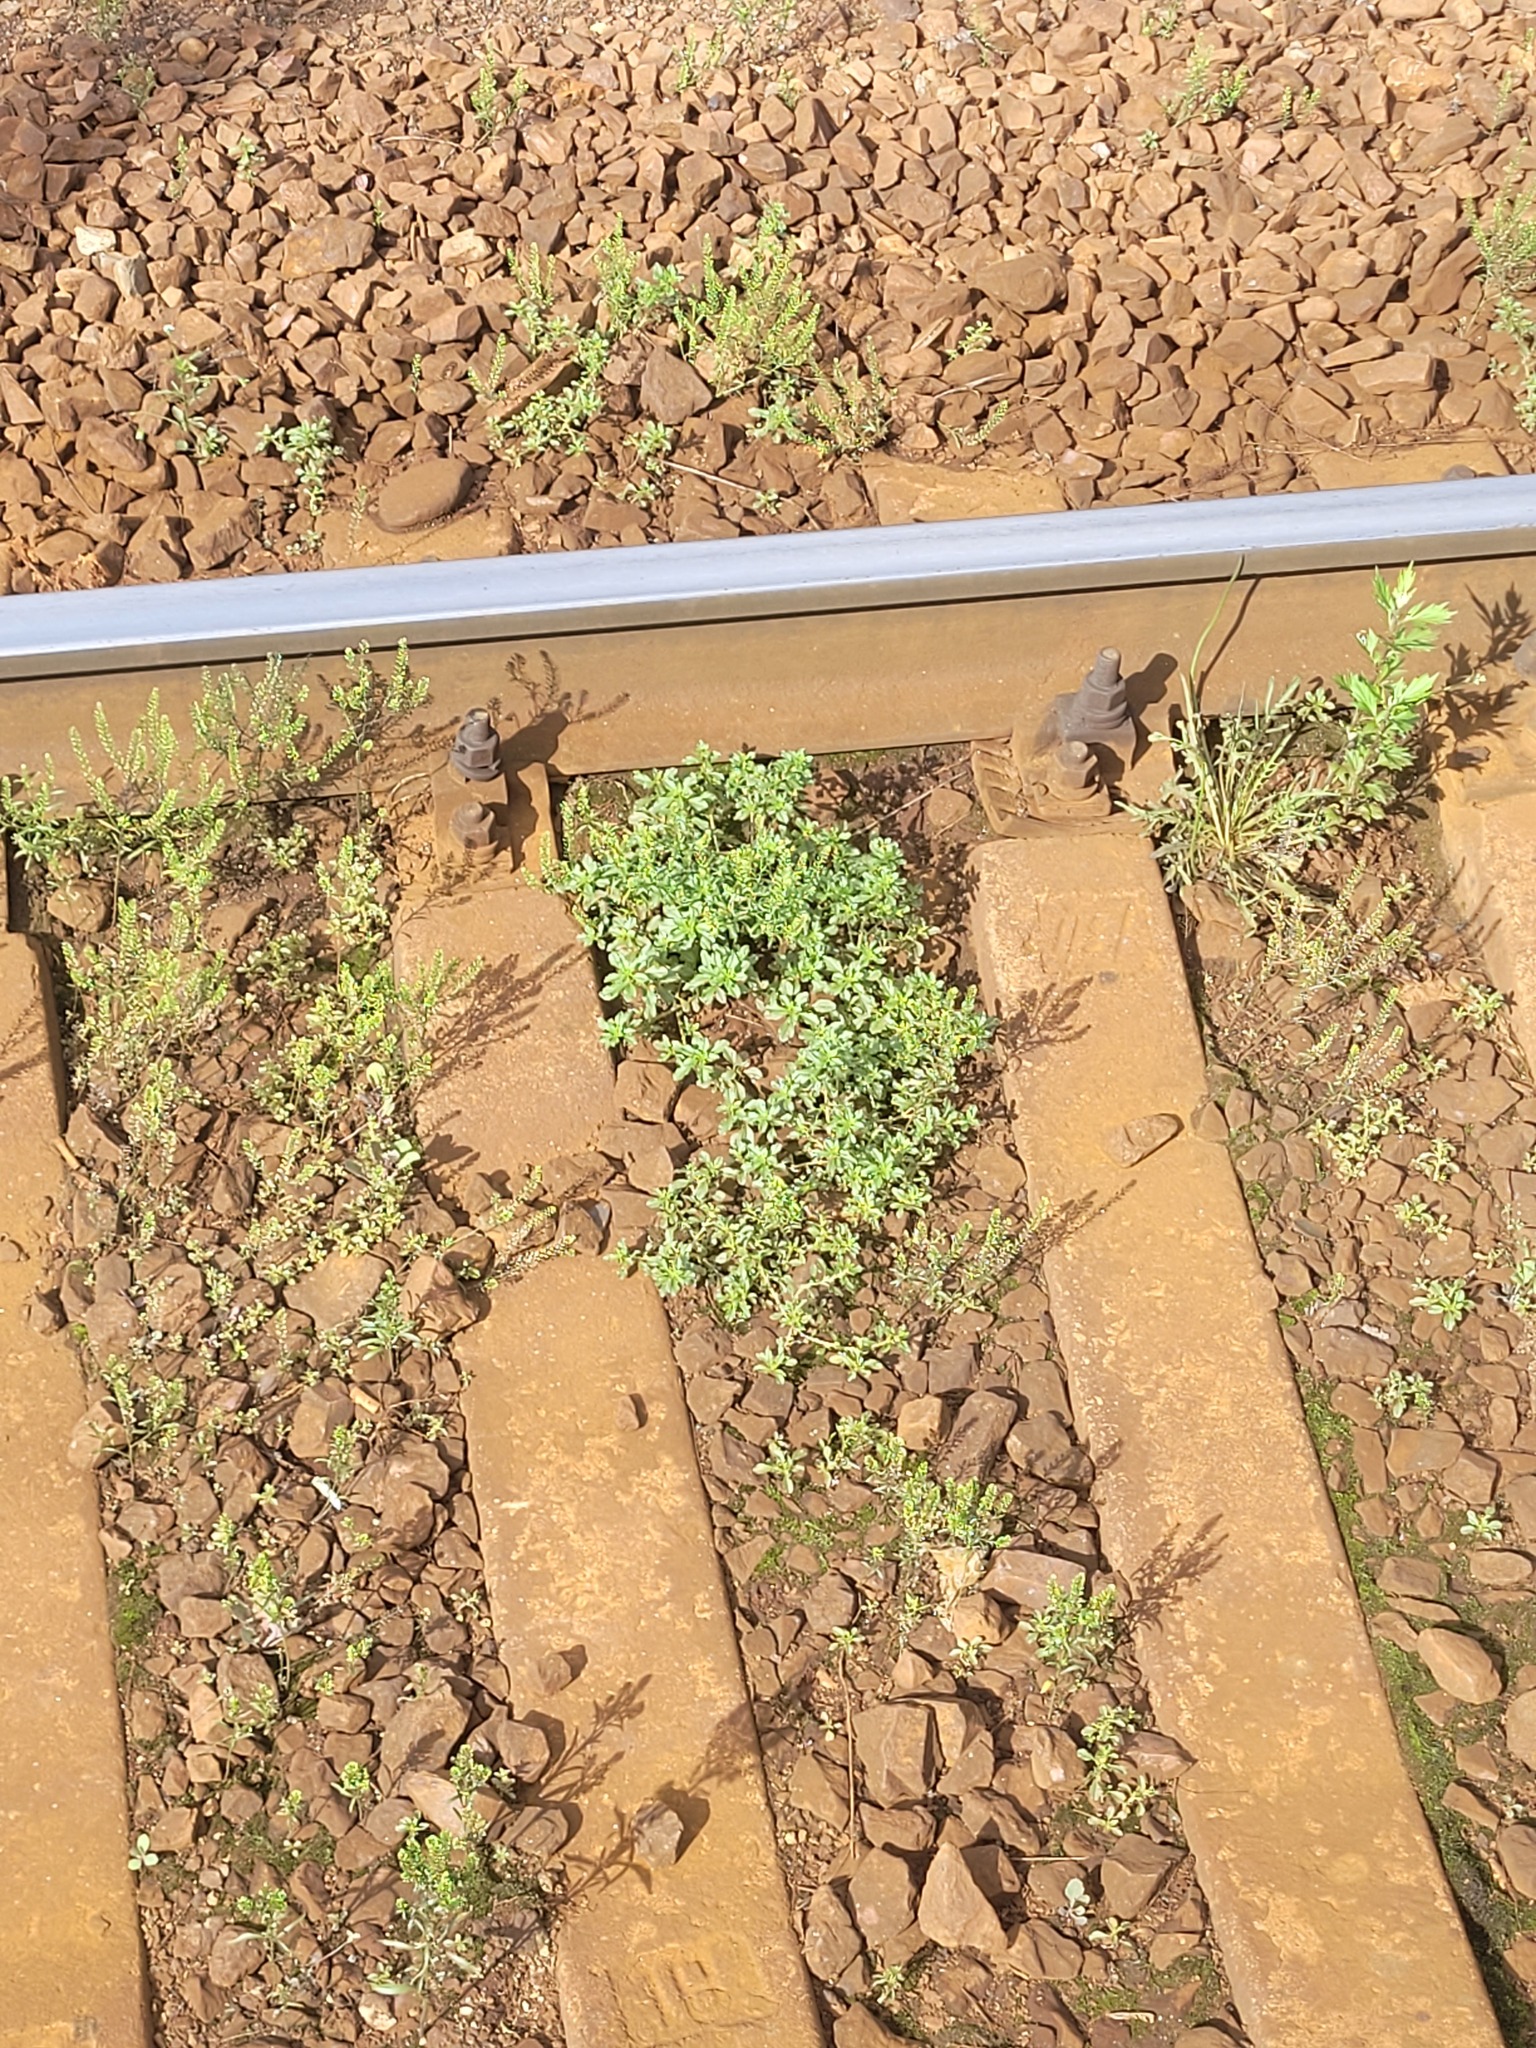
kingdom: Plantae
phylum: Tracheophyta
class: Magnoliopsida
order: Caryophyllales
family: Amaranthaceae
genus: Amaranthus
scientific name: Amaranthus albus
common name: White pigweed
